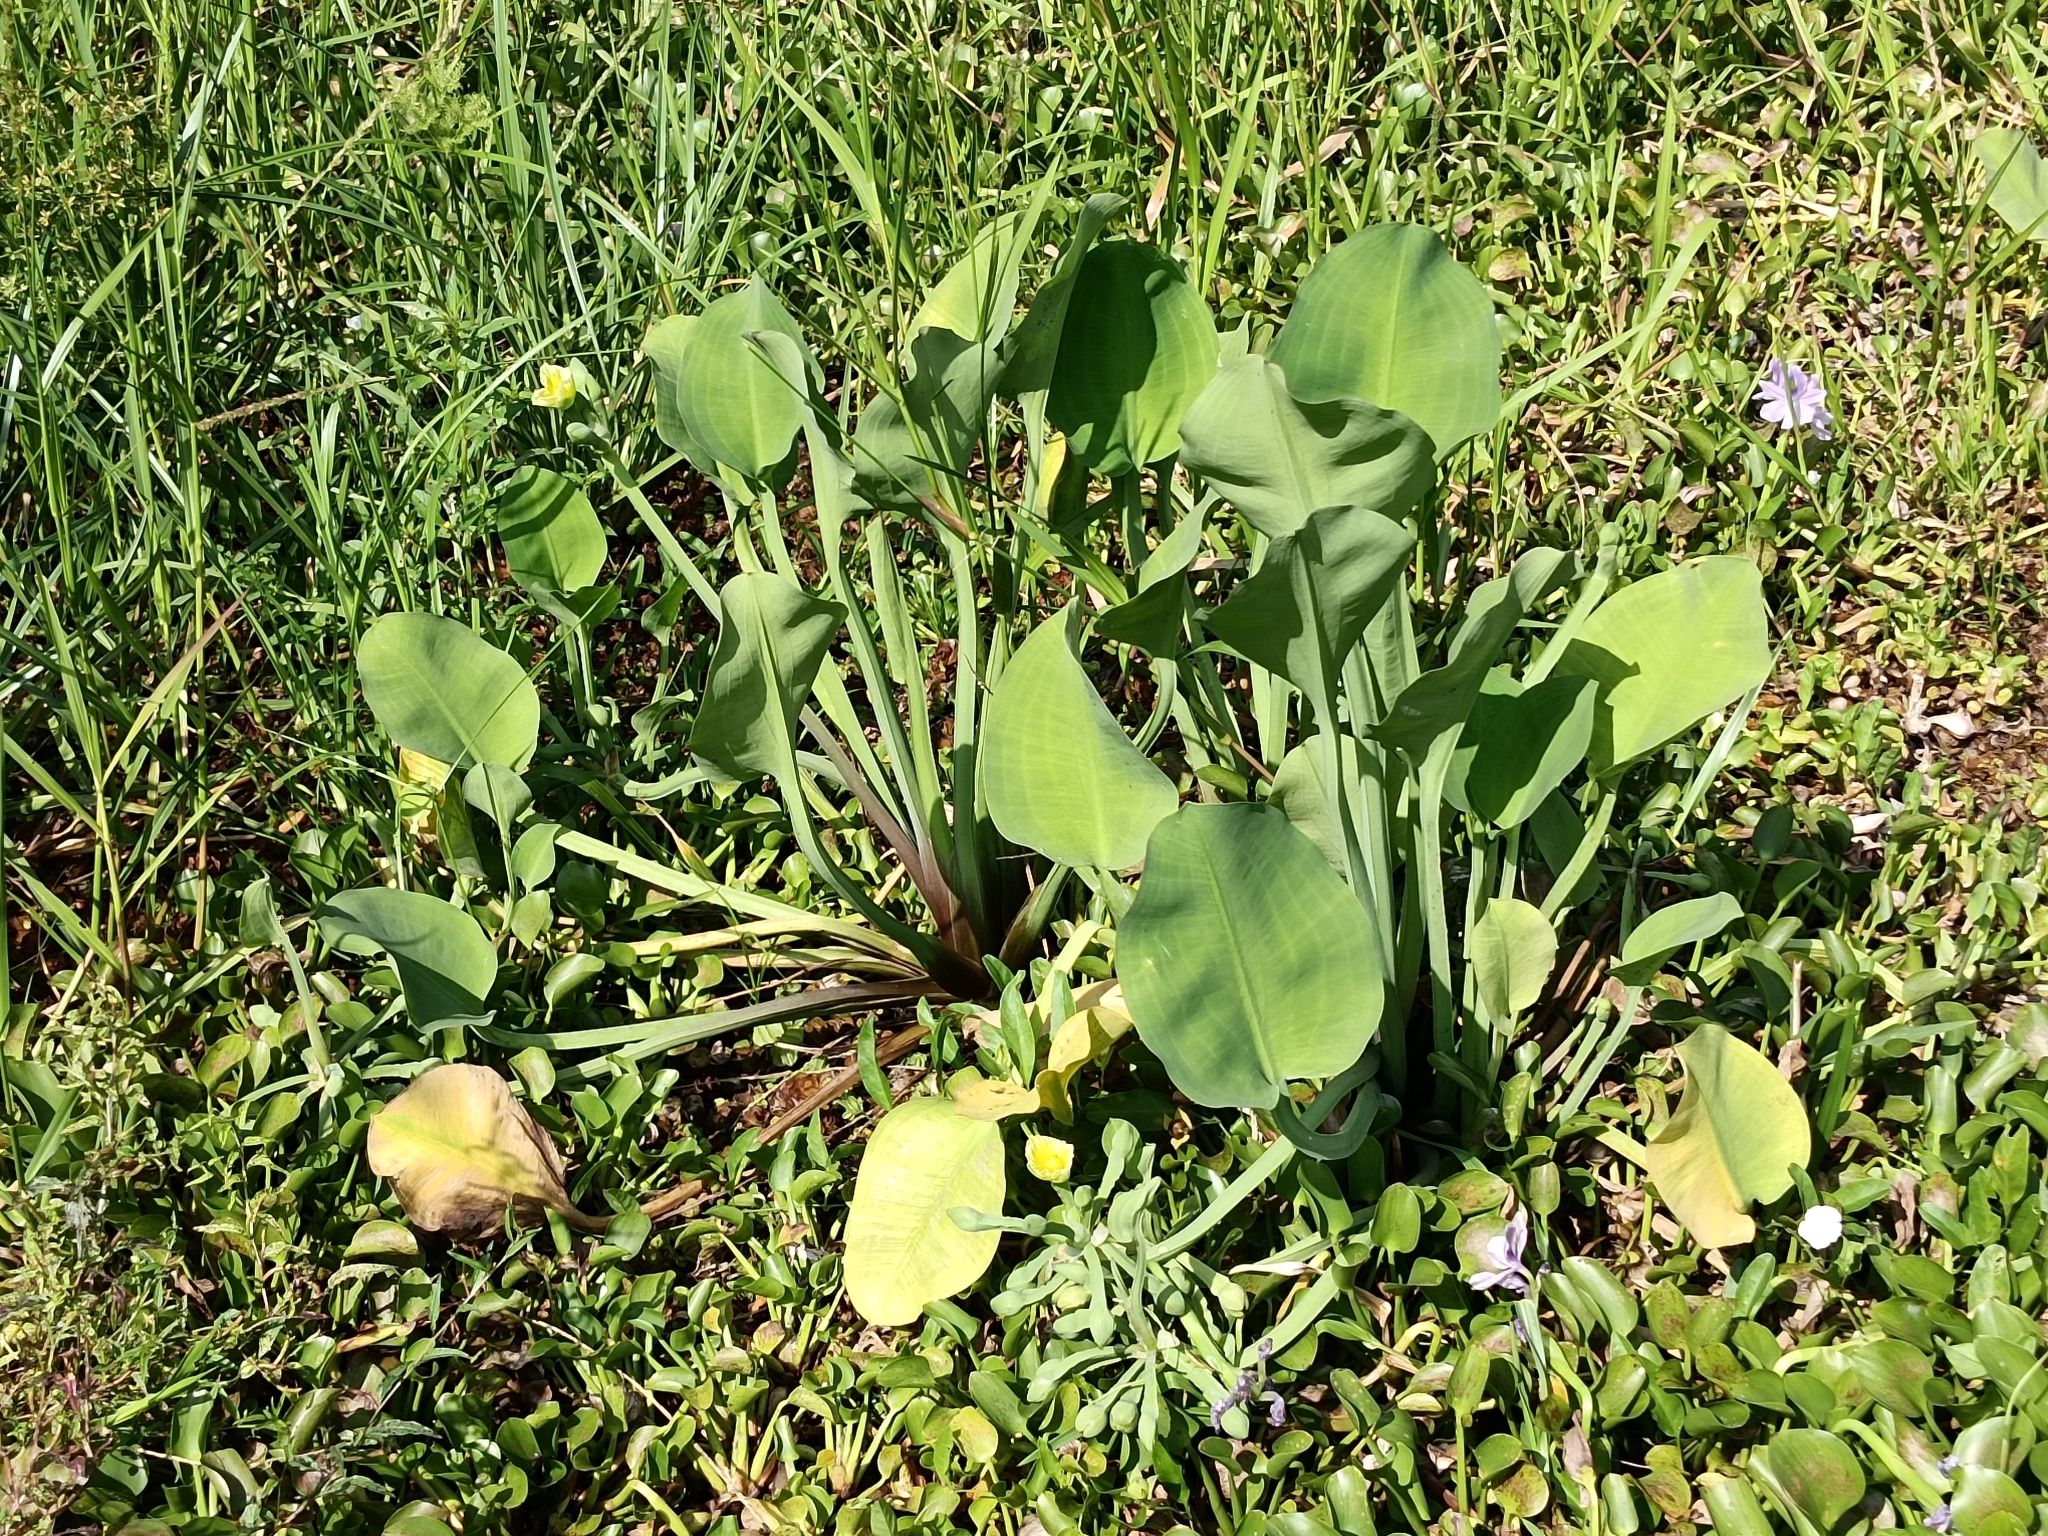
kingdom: Plantae
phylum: Tracheophyta
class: Liliopsida
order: Alismatales
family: Alismataceae
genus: Limnocharis
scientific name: Limnocharis flava
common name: Sawah-flower-rush
